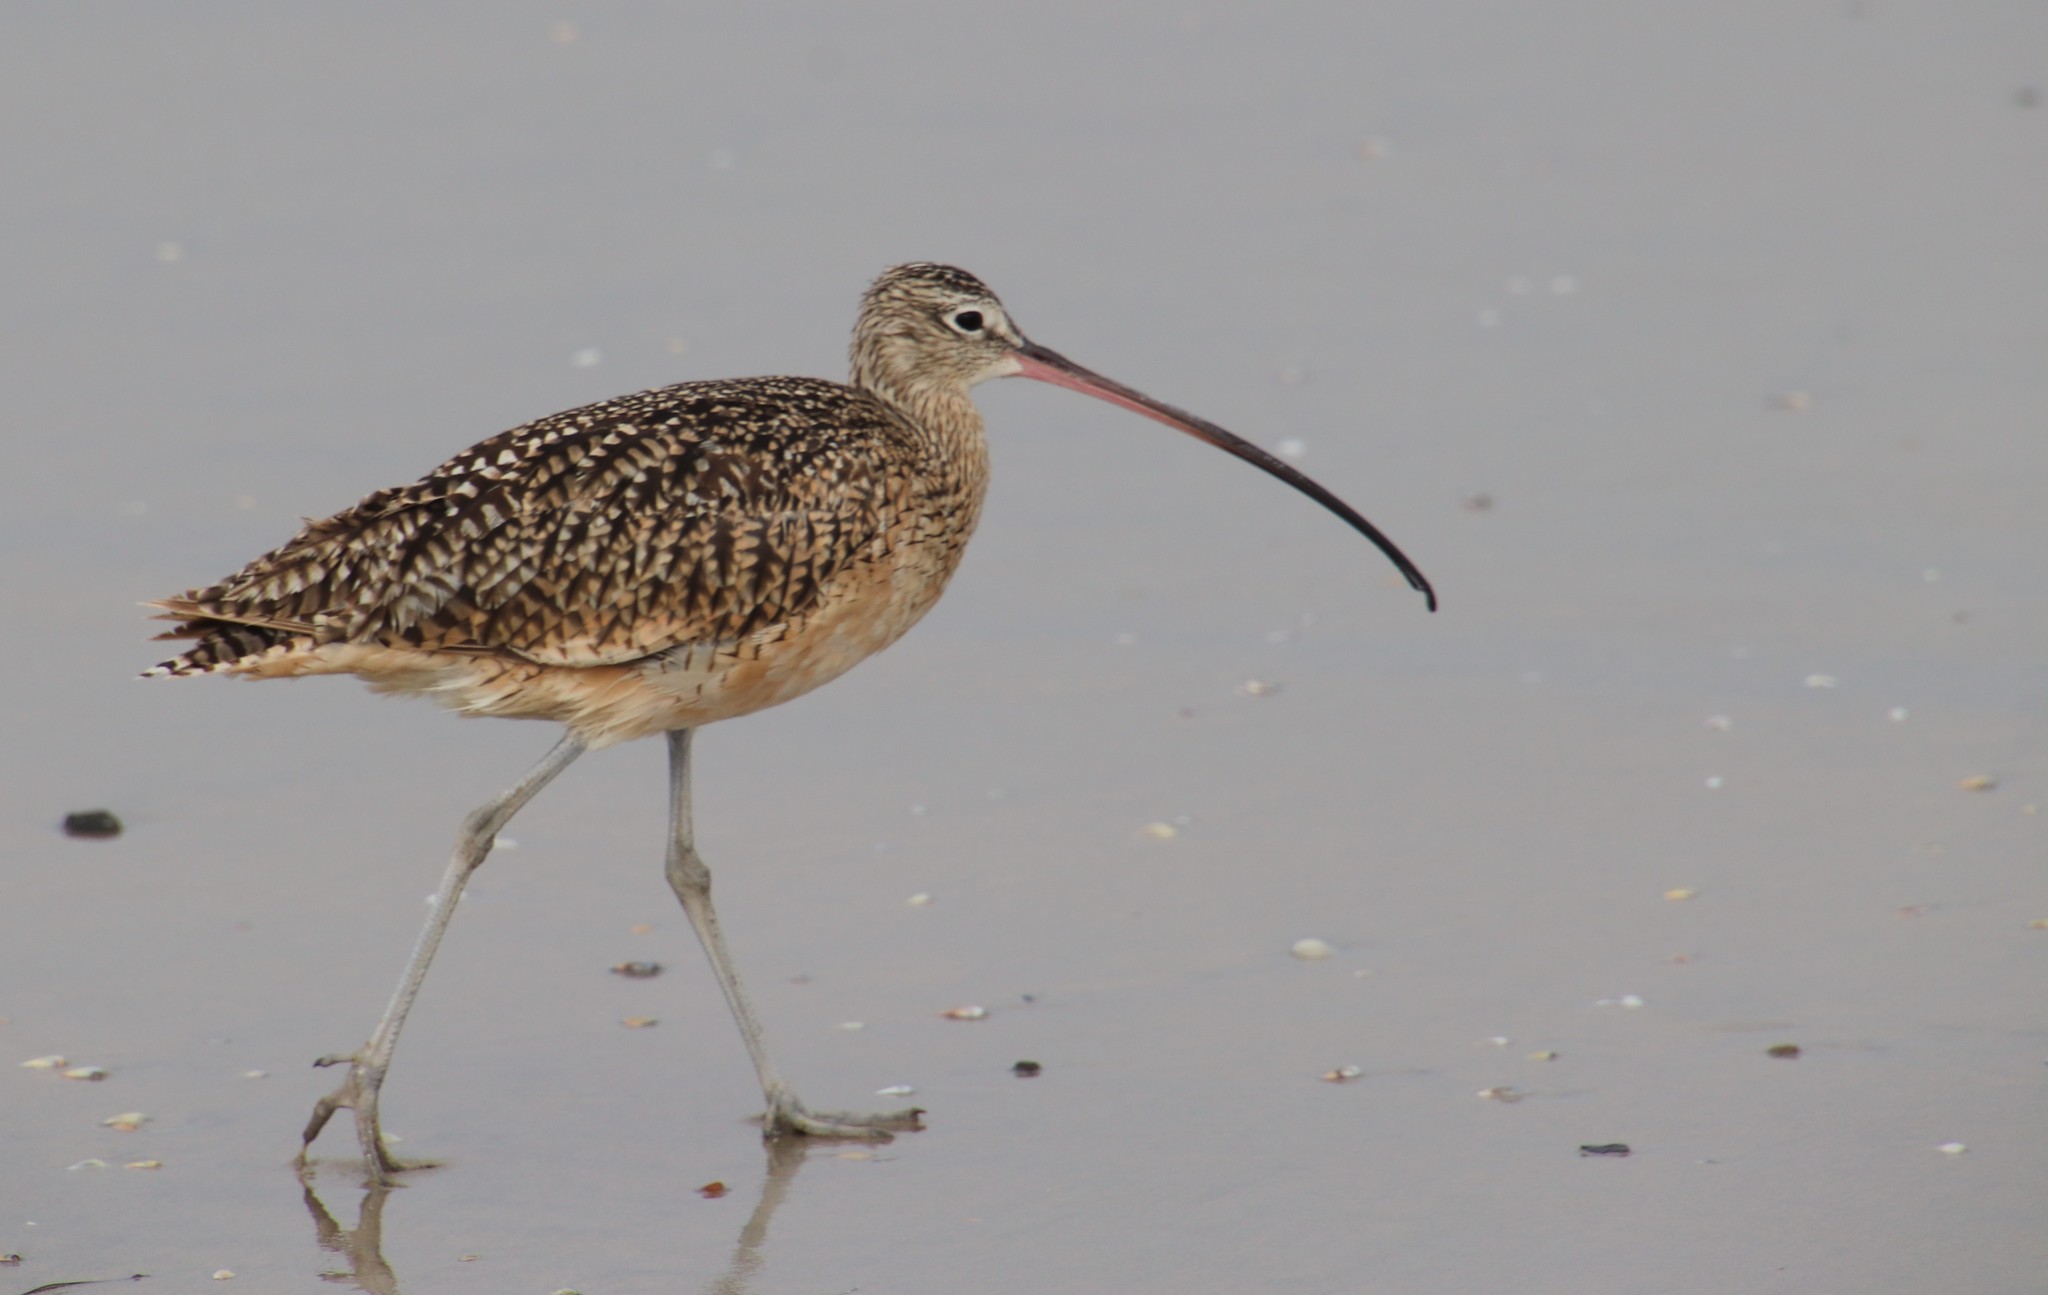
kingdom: Animalia
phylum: Chordata
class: Aves
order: Charadriiformes
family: Scolopacidae
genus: Numenius
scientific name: Numenius americanus
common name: Long-billed curlew
